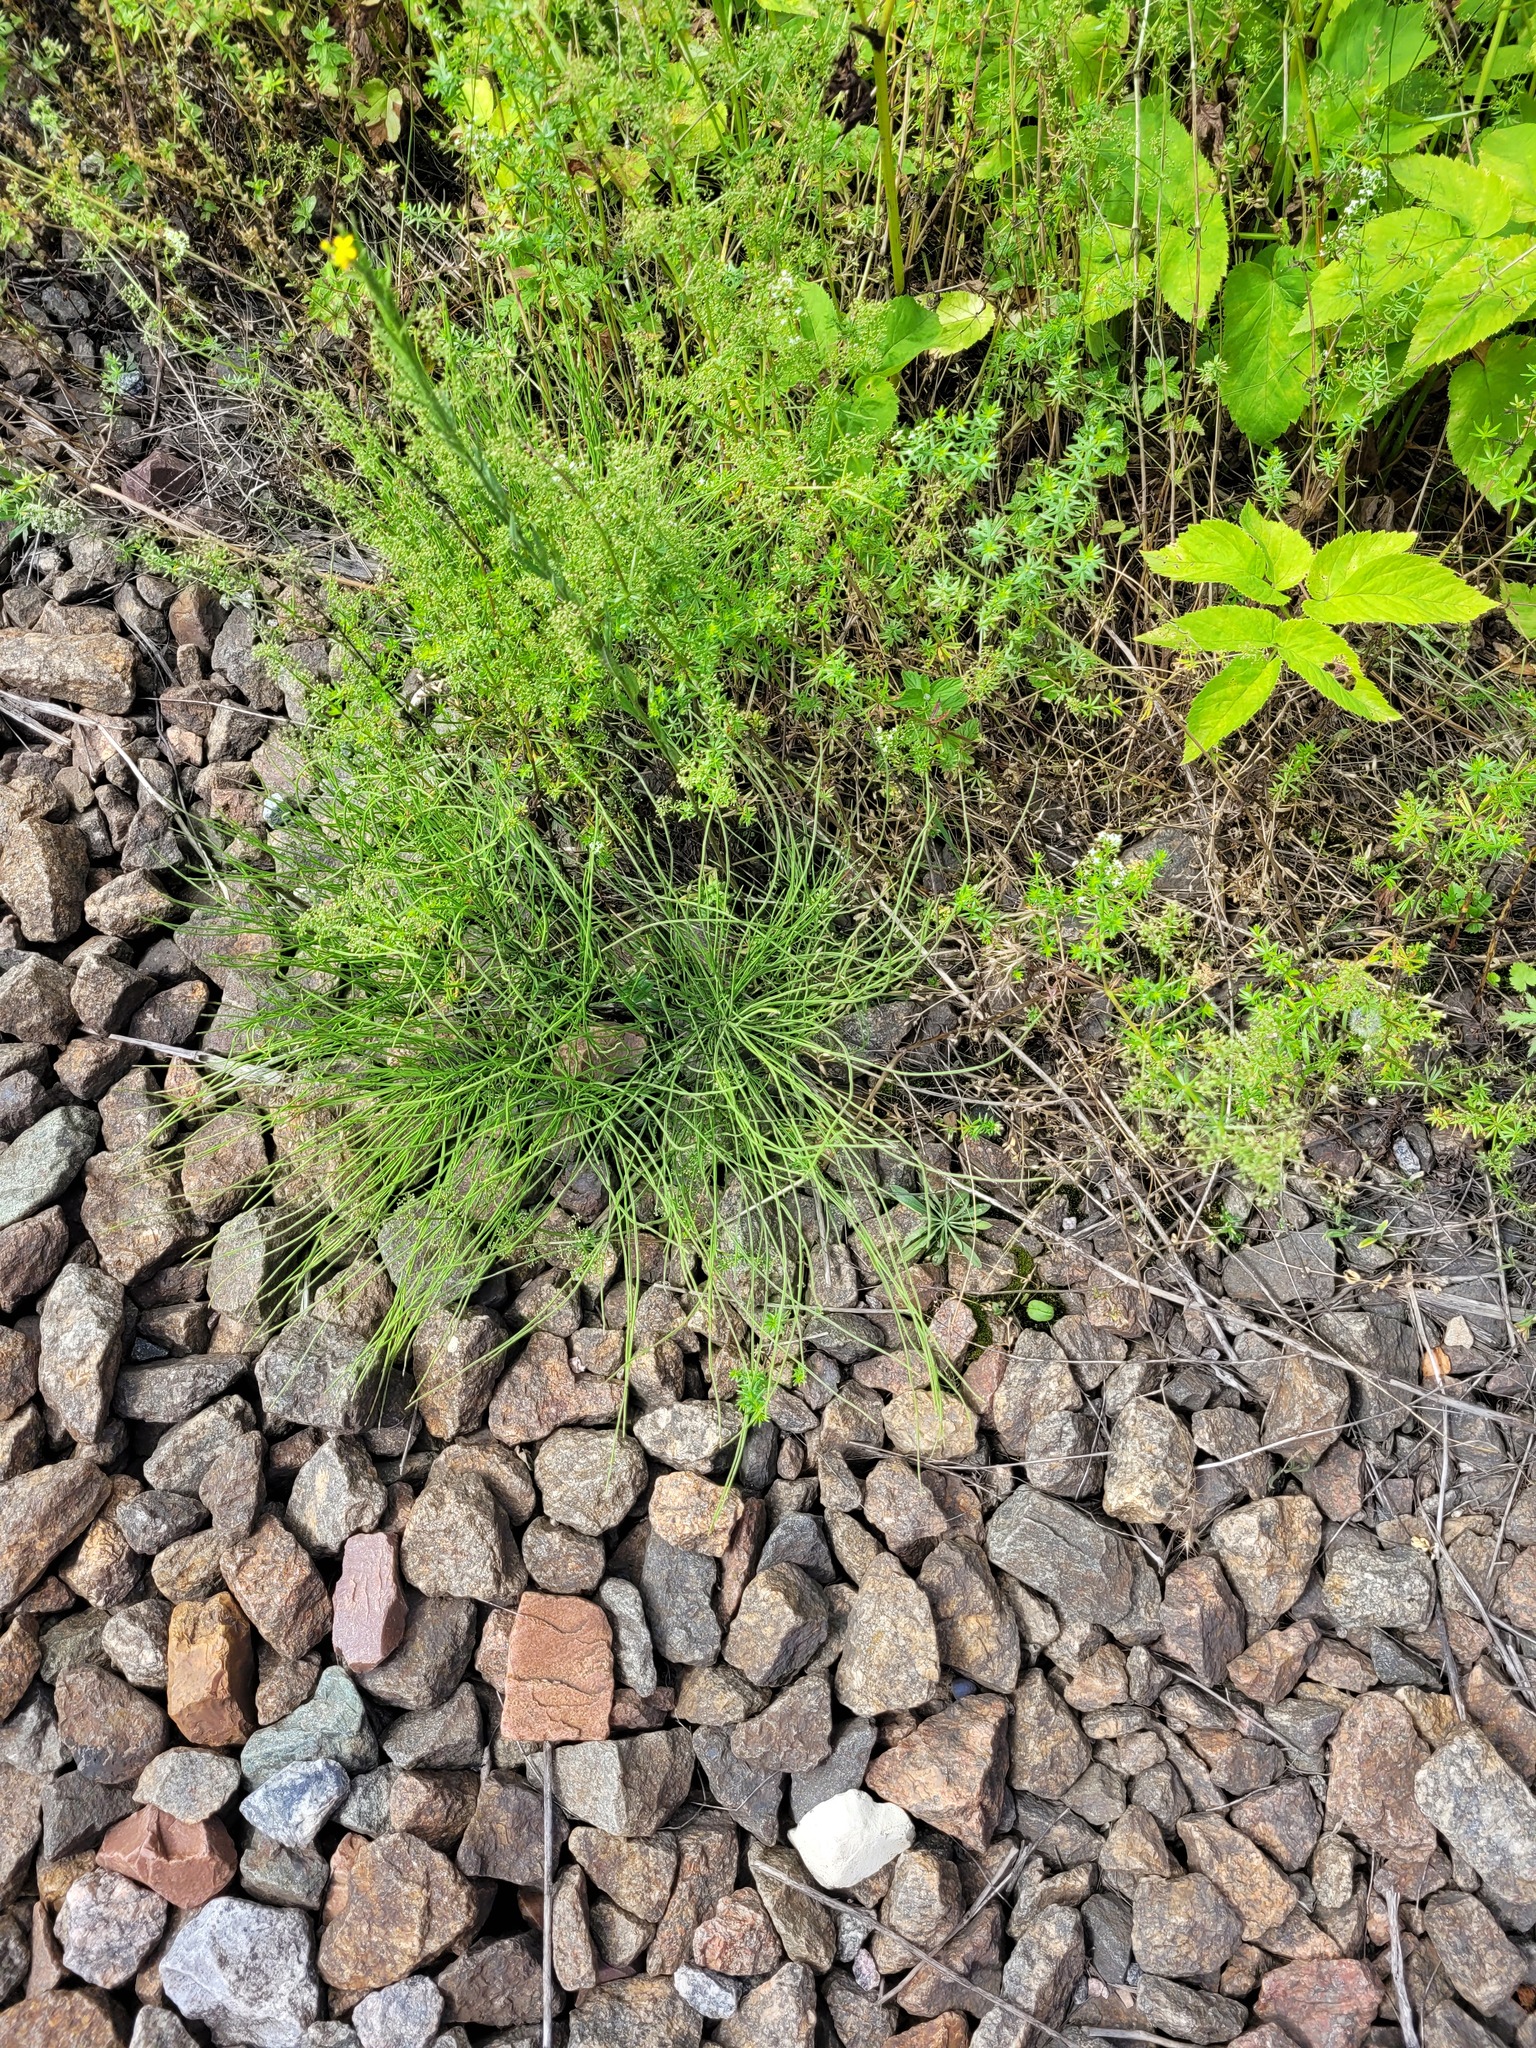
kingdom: Plantae
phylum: Tracheophyta
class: Polypodiopsida
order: Equisetales
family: Equisetaceae
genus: Equisetum
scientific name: Equisetum arvense
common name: Field horsetail
